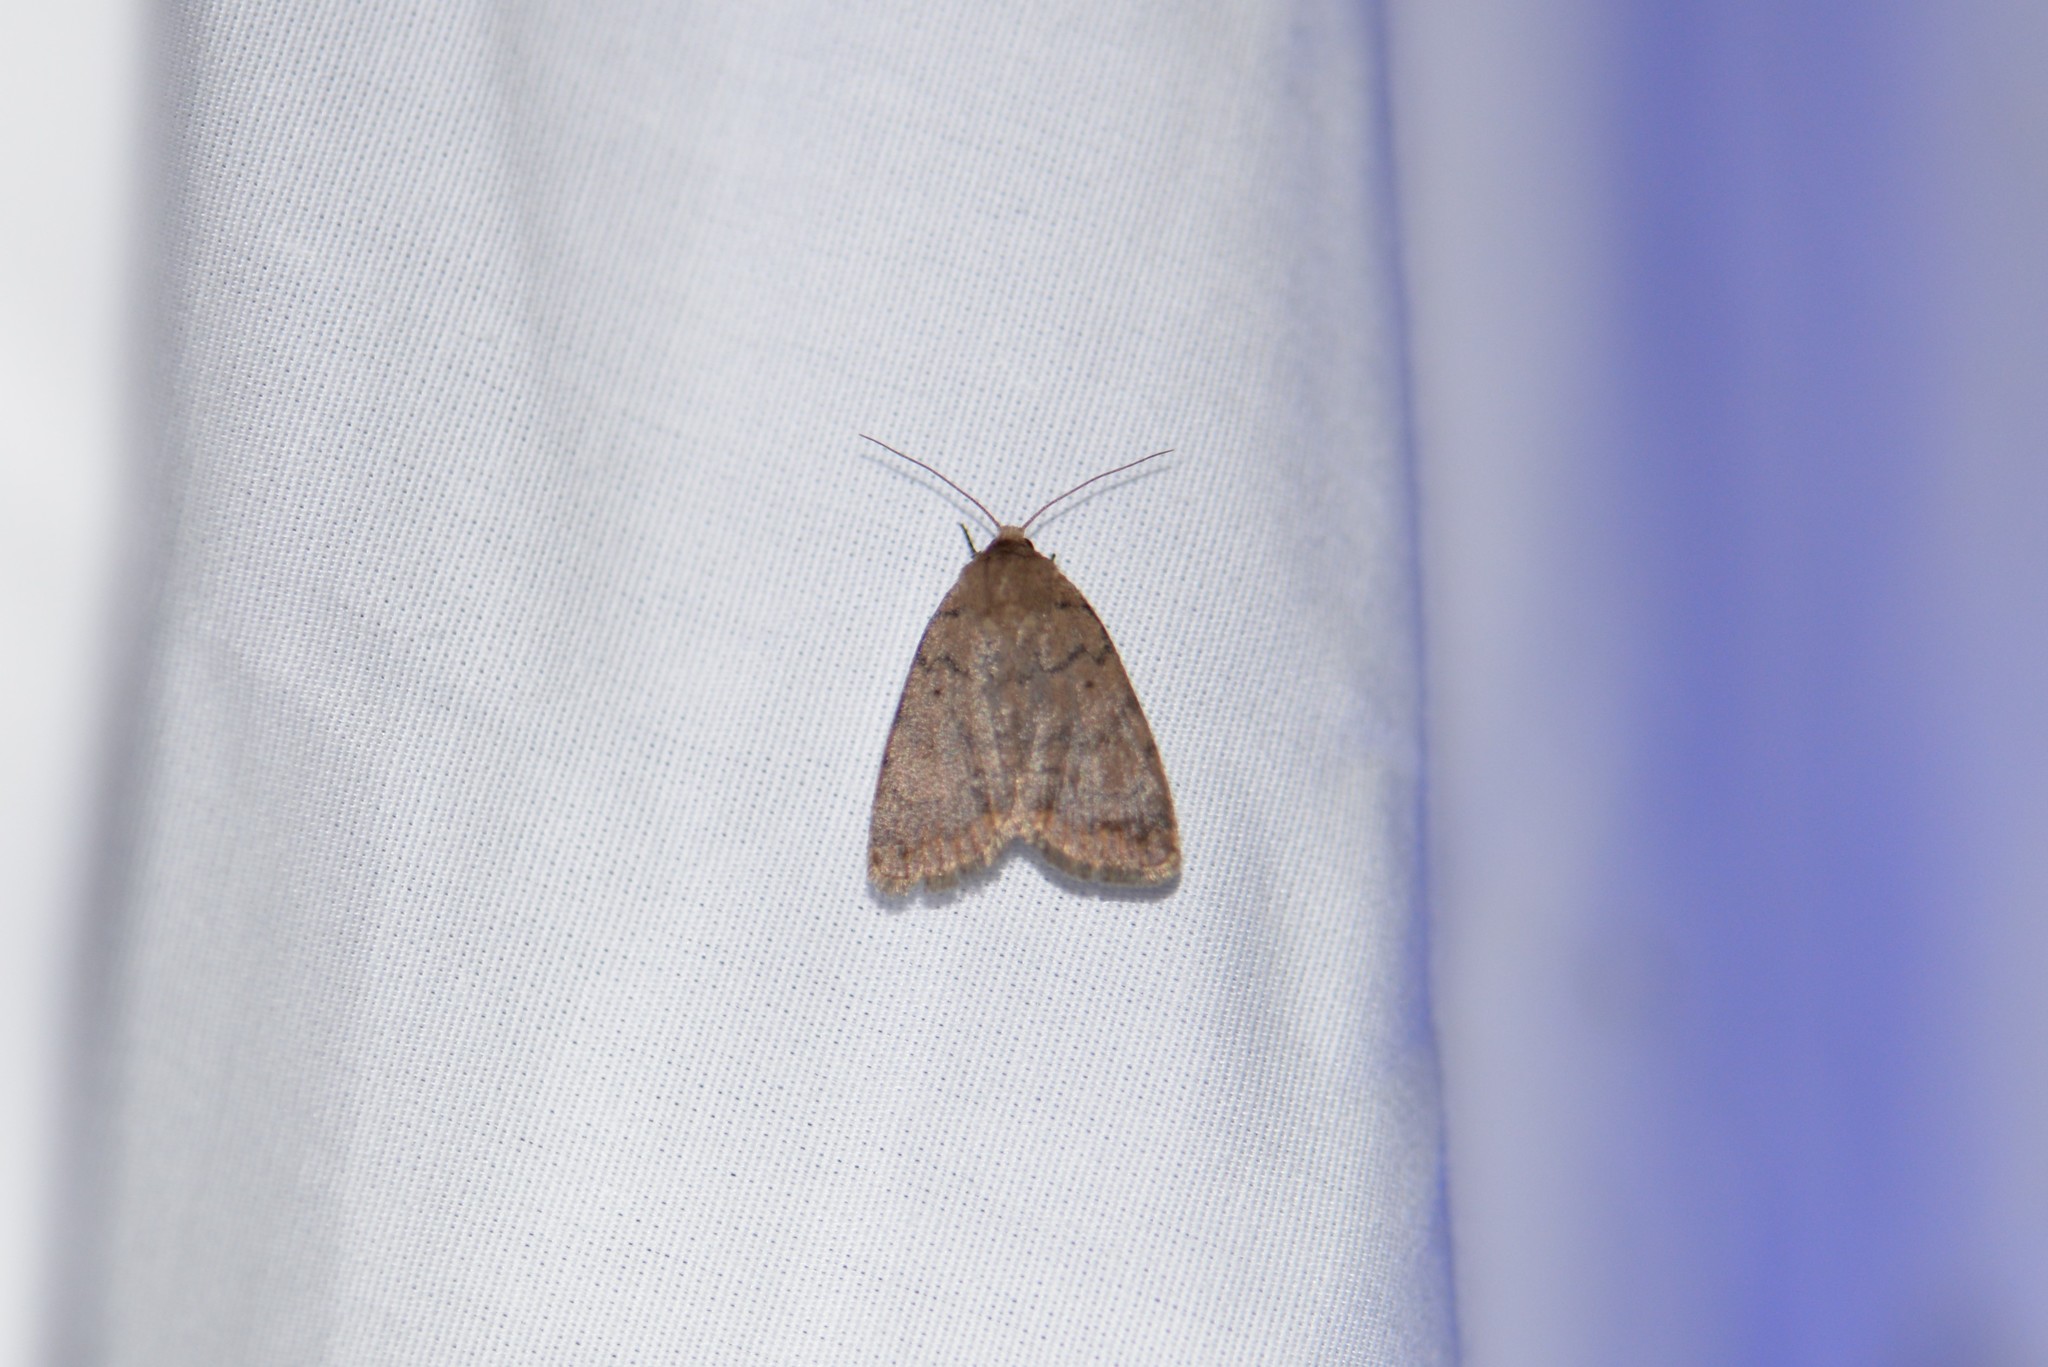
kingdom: Animalia
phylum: Arthropoda
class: Insecta
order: Lepidoptera
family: Noctuidae
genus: Athetis
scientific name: Athetis tarda
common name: Slowpoke moth
